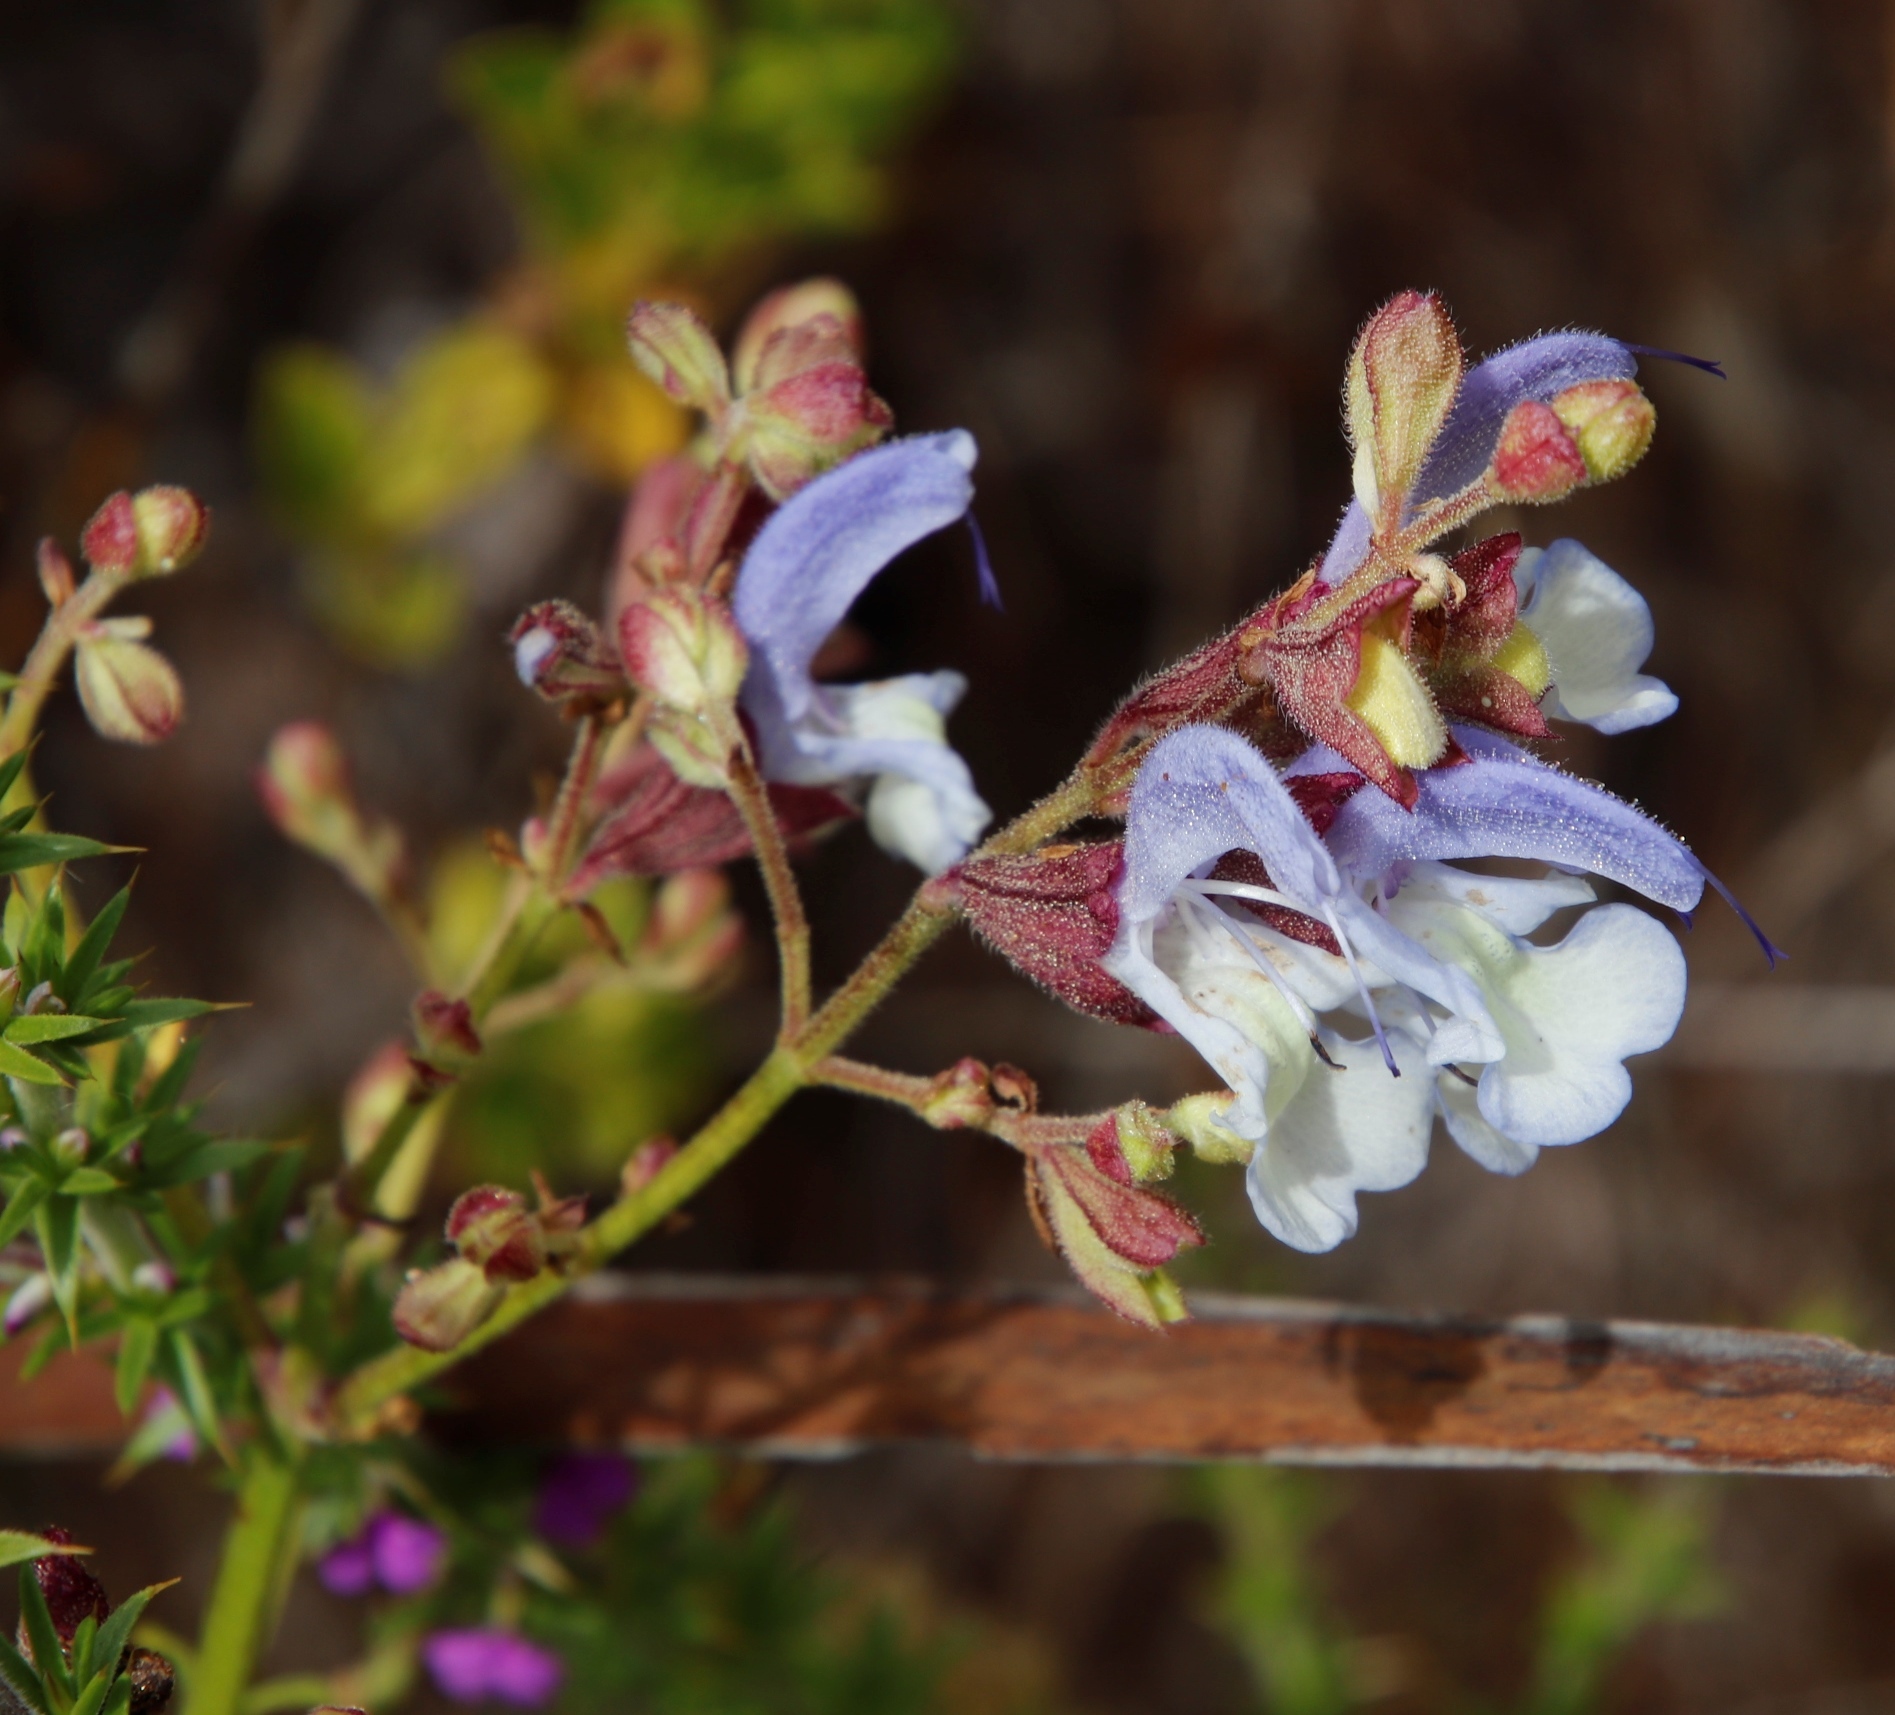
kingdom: Plantae
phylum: Tracheophyta
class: Magnoliopsida
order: Lamiales
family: Lamiaceae
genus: Salvia
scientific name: Salvia chamelaeagnea
